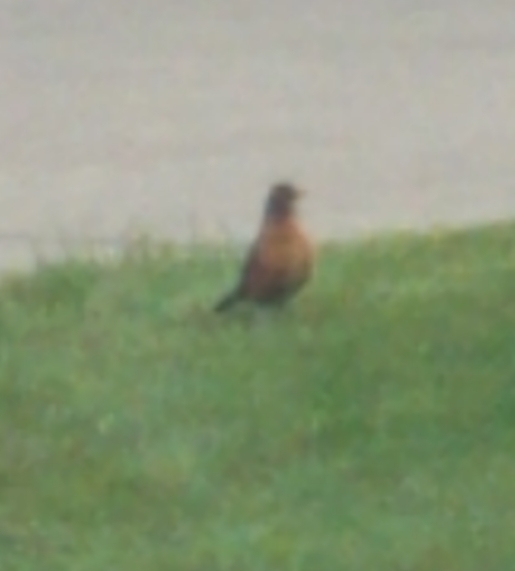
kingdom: Animalia
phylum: Chordata
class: Aves
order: Passeriformes
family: Turdidae
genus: Turdus
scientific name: Turdus migratorius
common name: American robin
